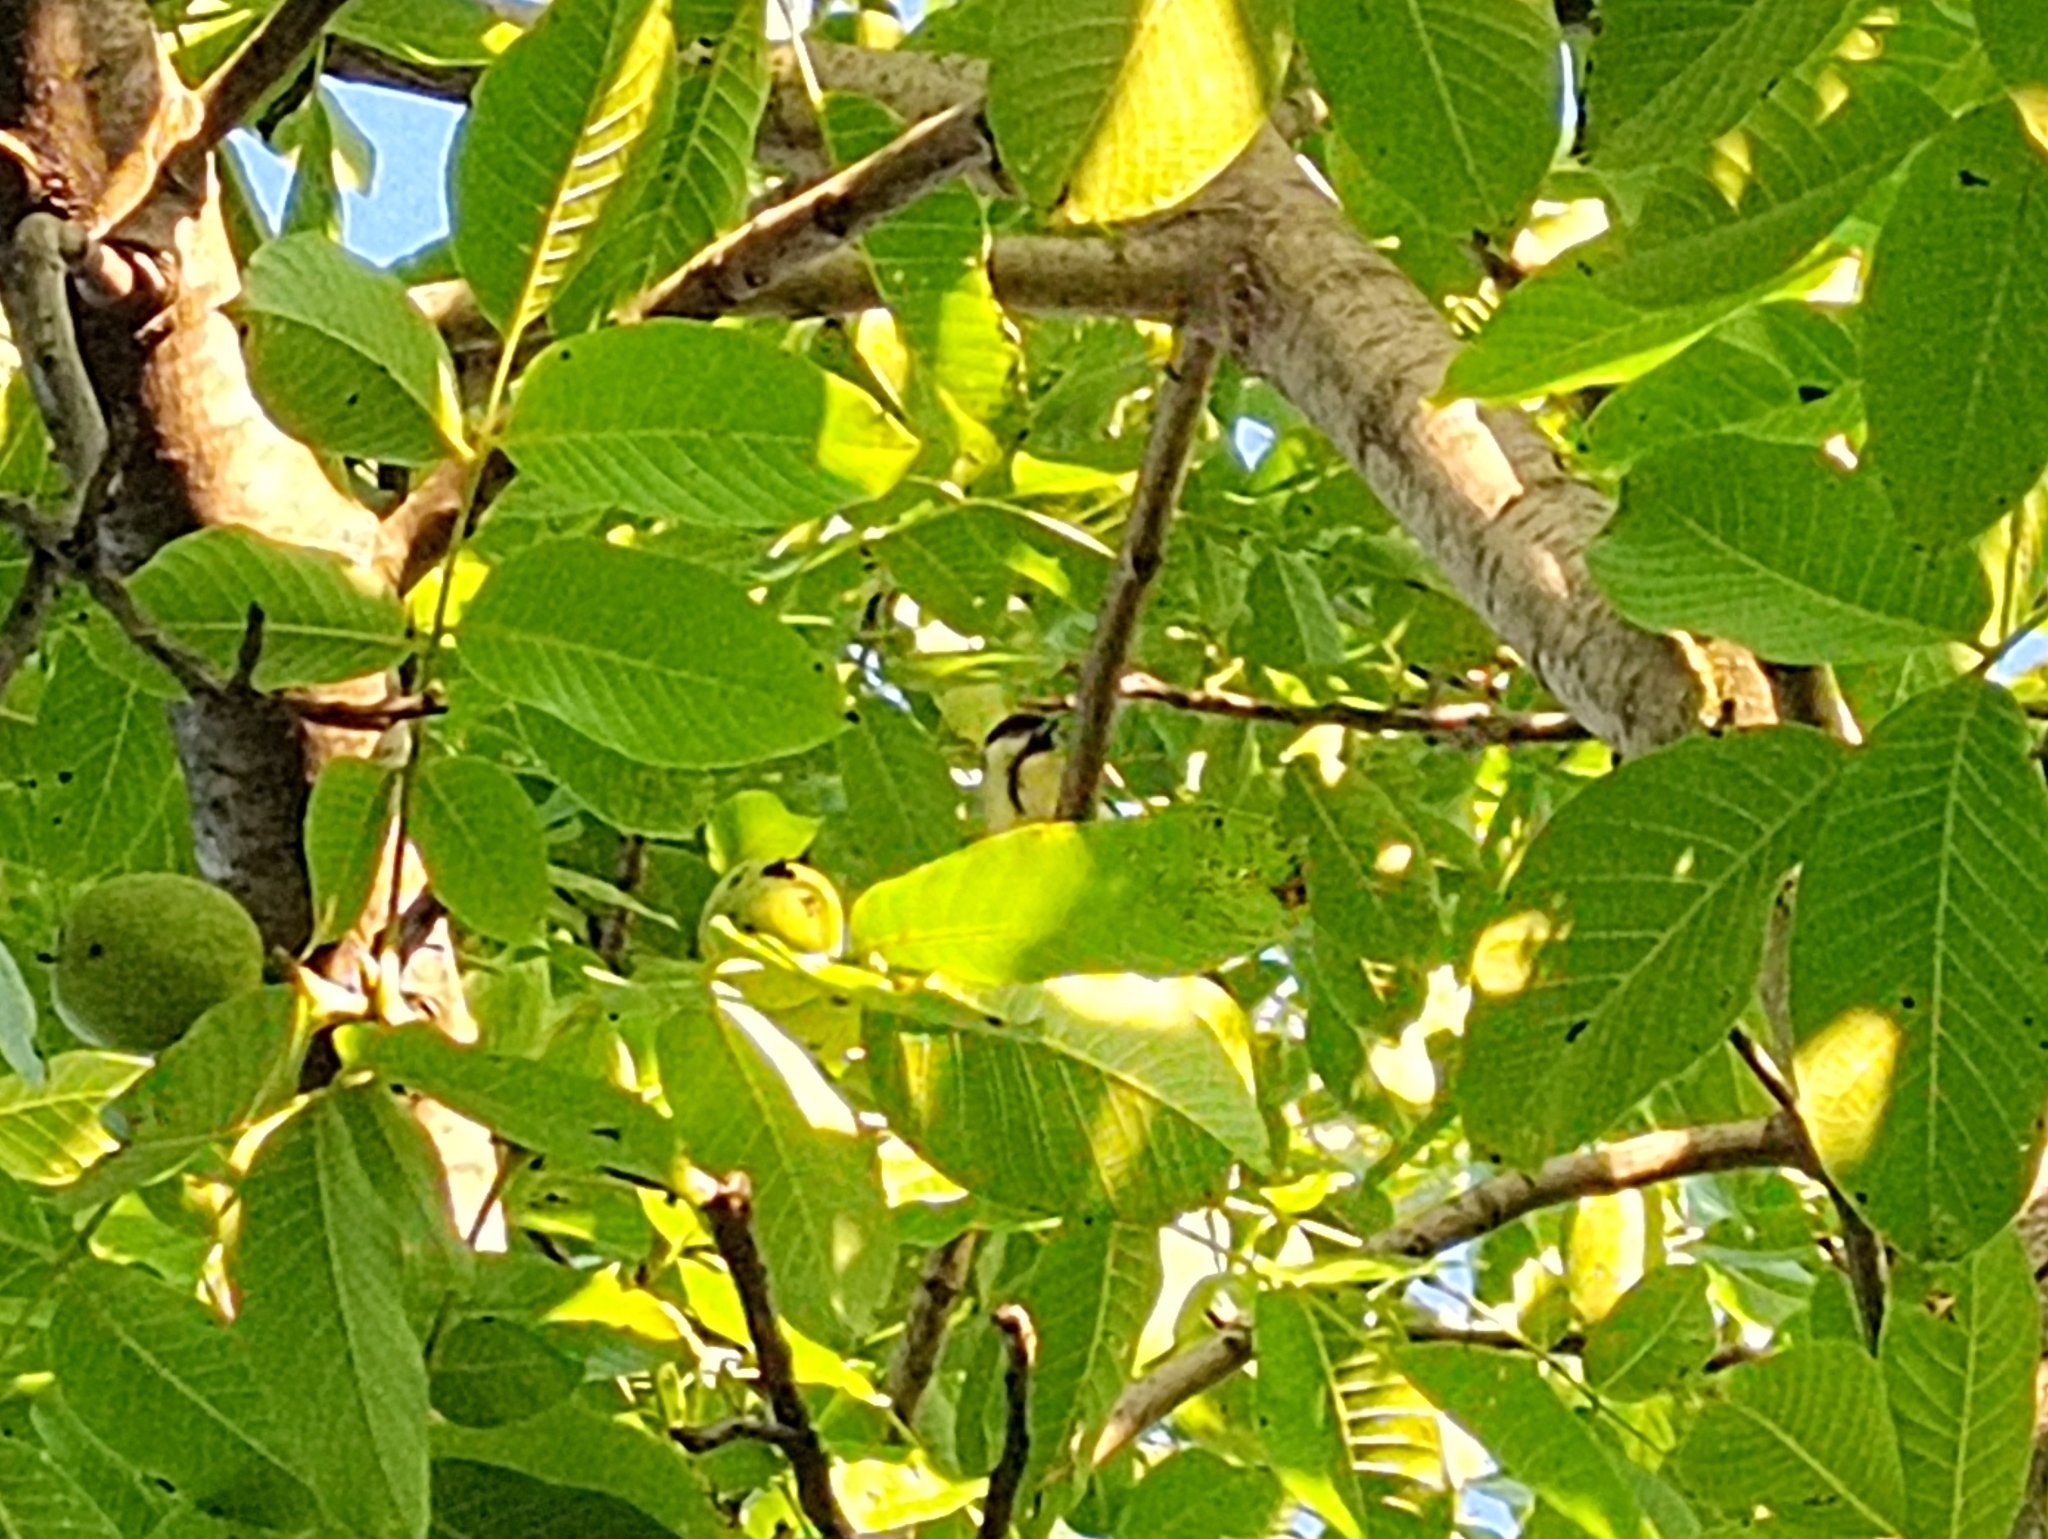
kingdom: Animalia
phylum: Chordata
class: Aves
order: Passeriformes
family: Paridae
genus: Parus
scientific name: Parus major
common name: Great tit
